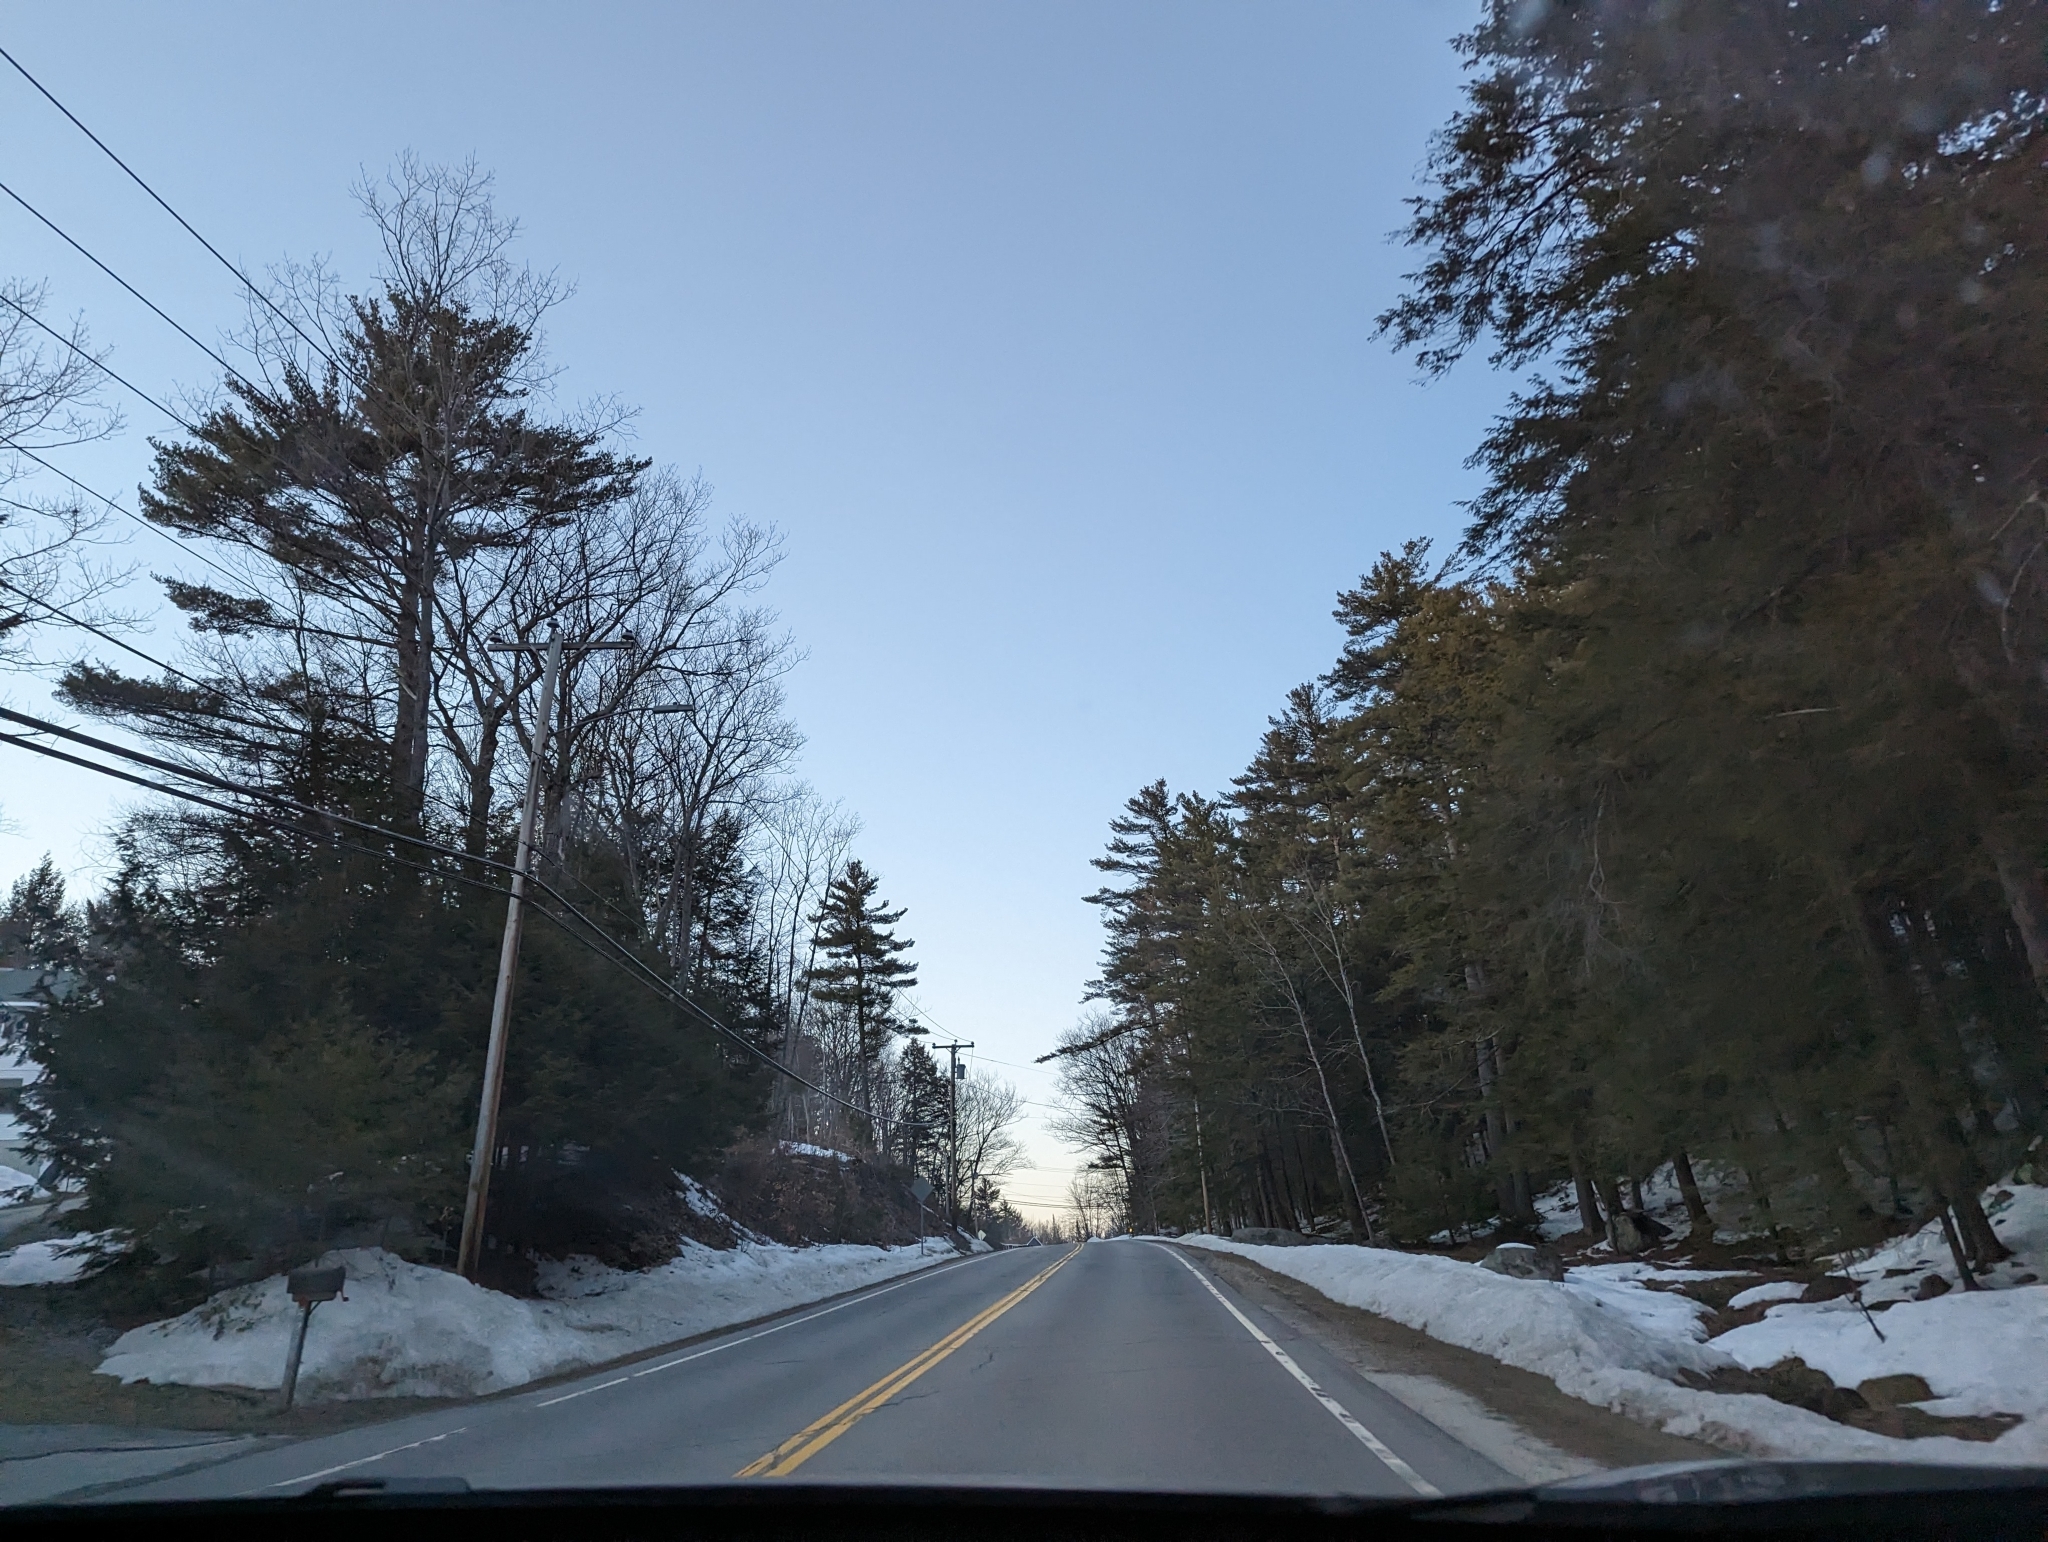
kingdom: Plantae
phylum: Tracheophyta
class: Pinopsida
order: Pinales
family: Pinaceae
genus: Pinus
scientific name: Pinus strobus
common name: Weymouth pine
